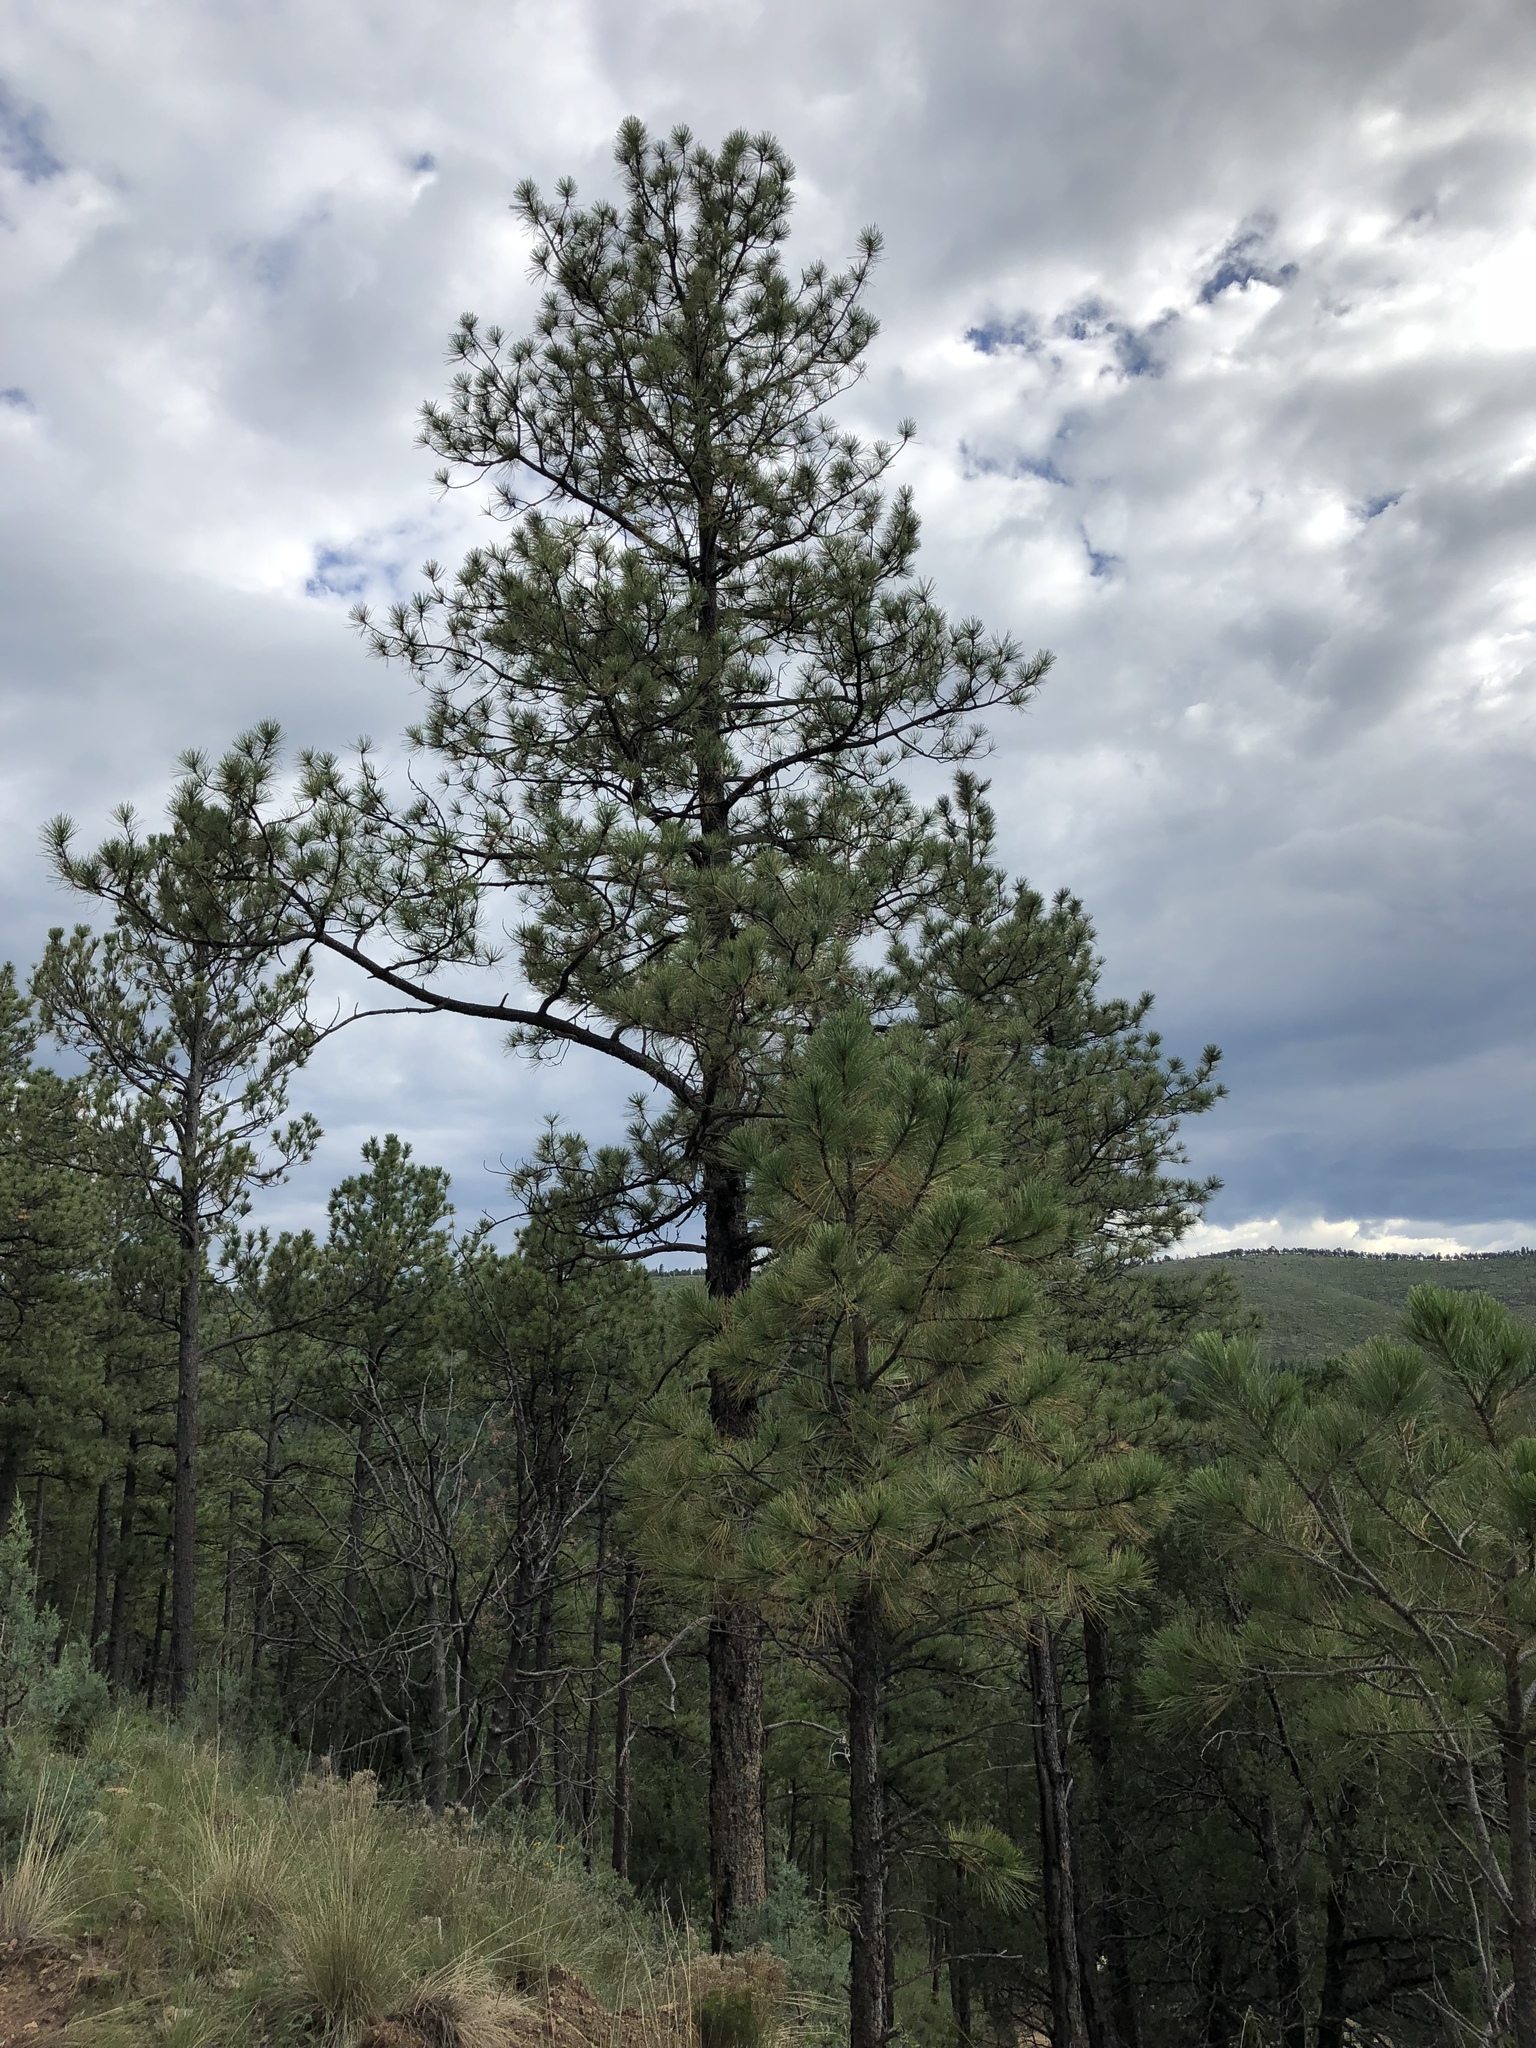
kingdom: Plantae
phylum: Tracheophyta
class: Pinopsida
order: Pinales
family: Pinaceae
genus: Pinus
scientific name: Pinus ponderosa
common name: Western yellow-pine
